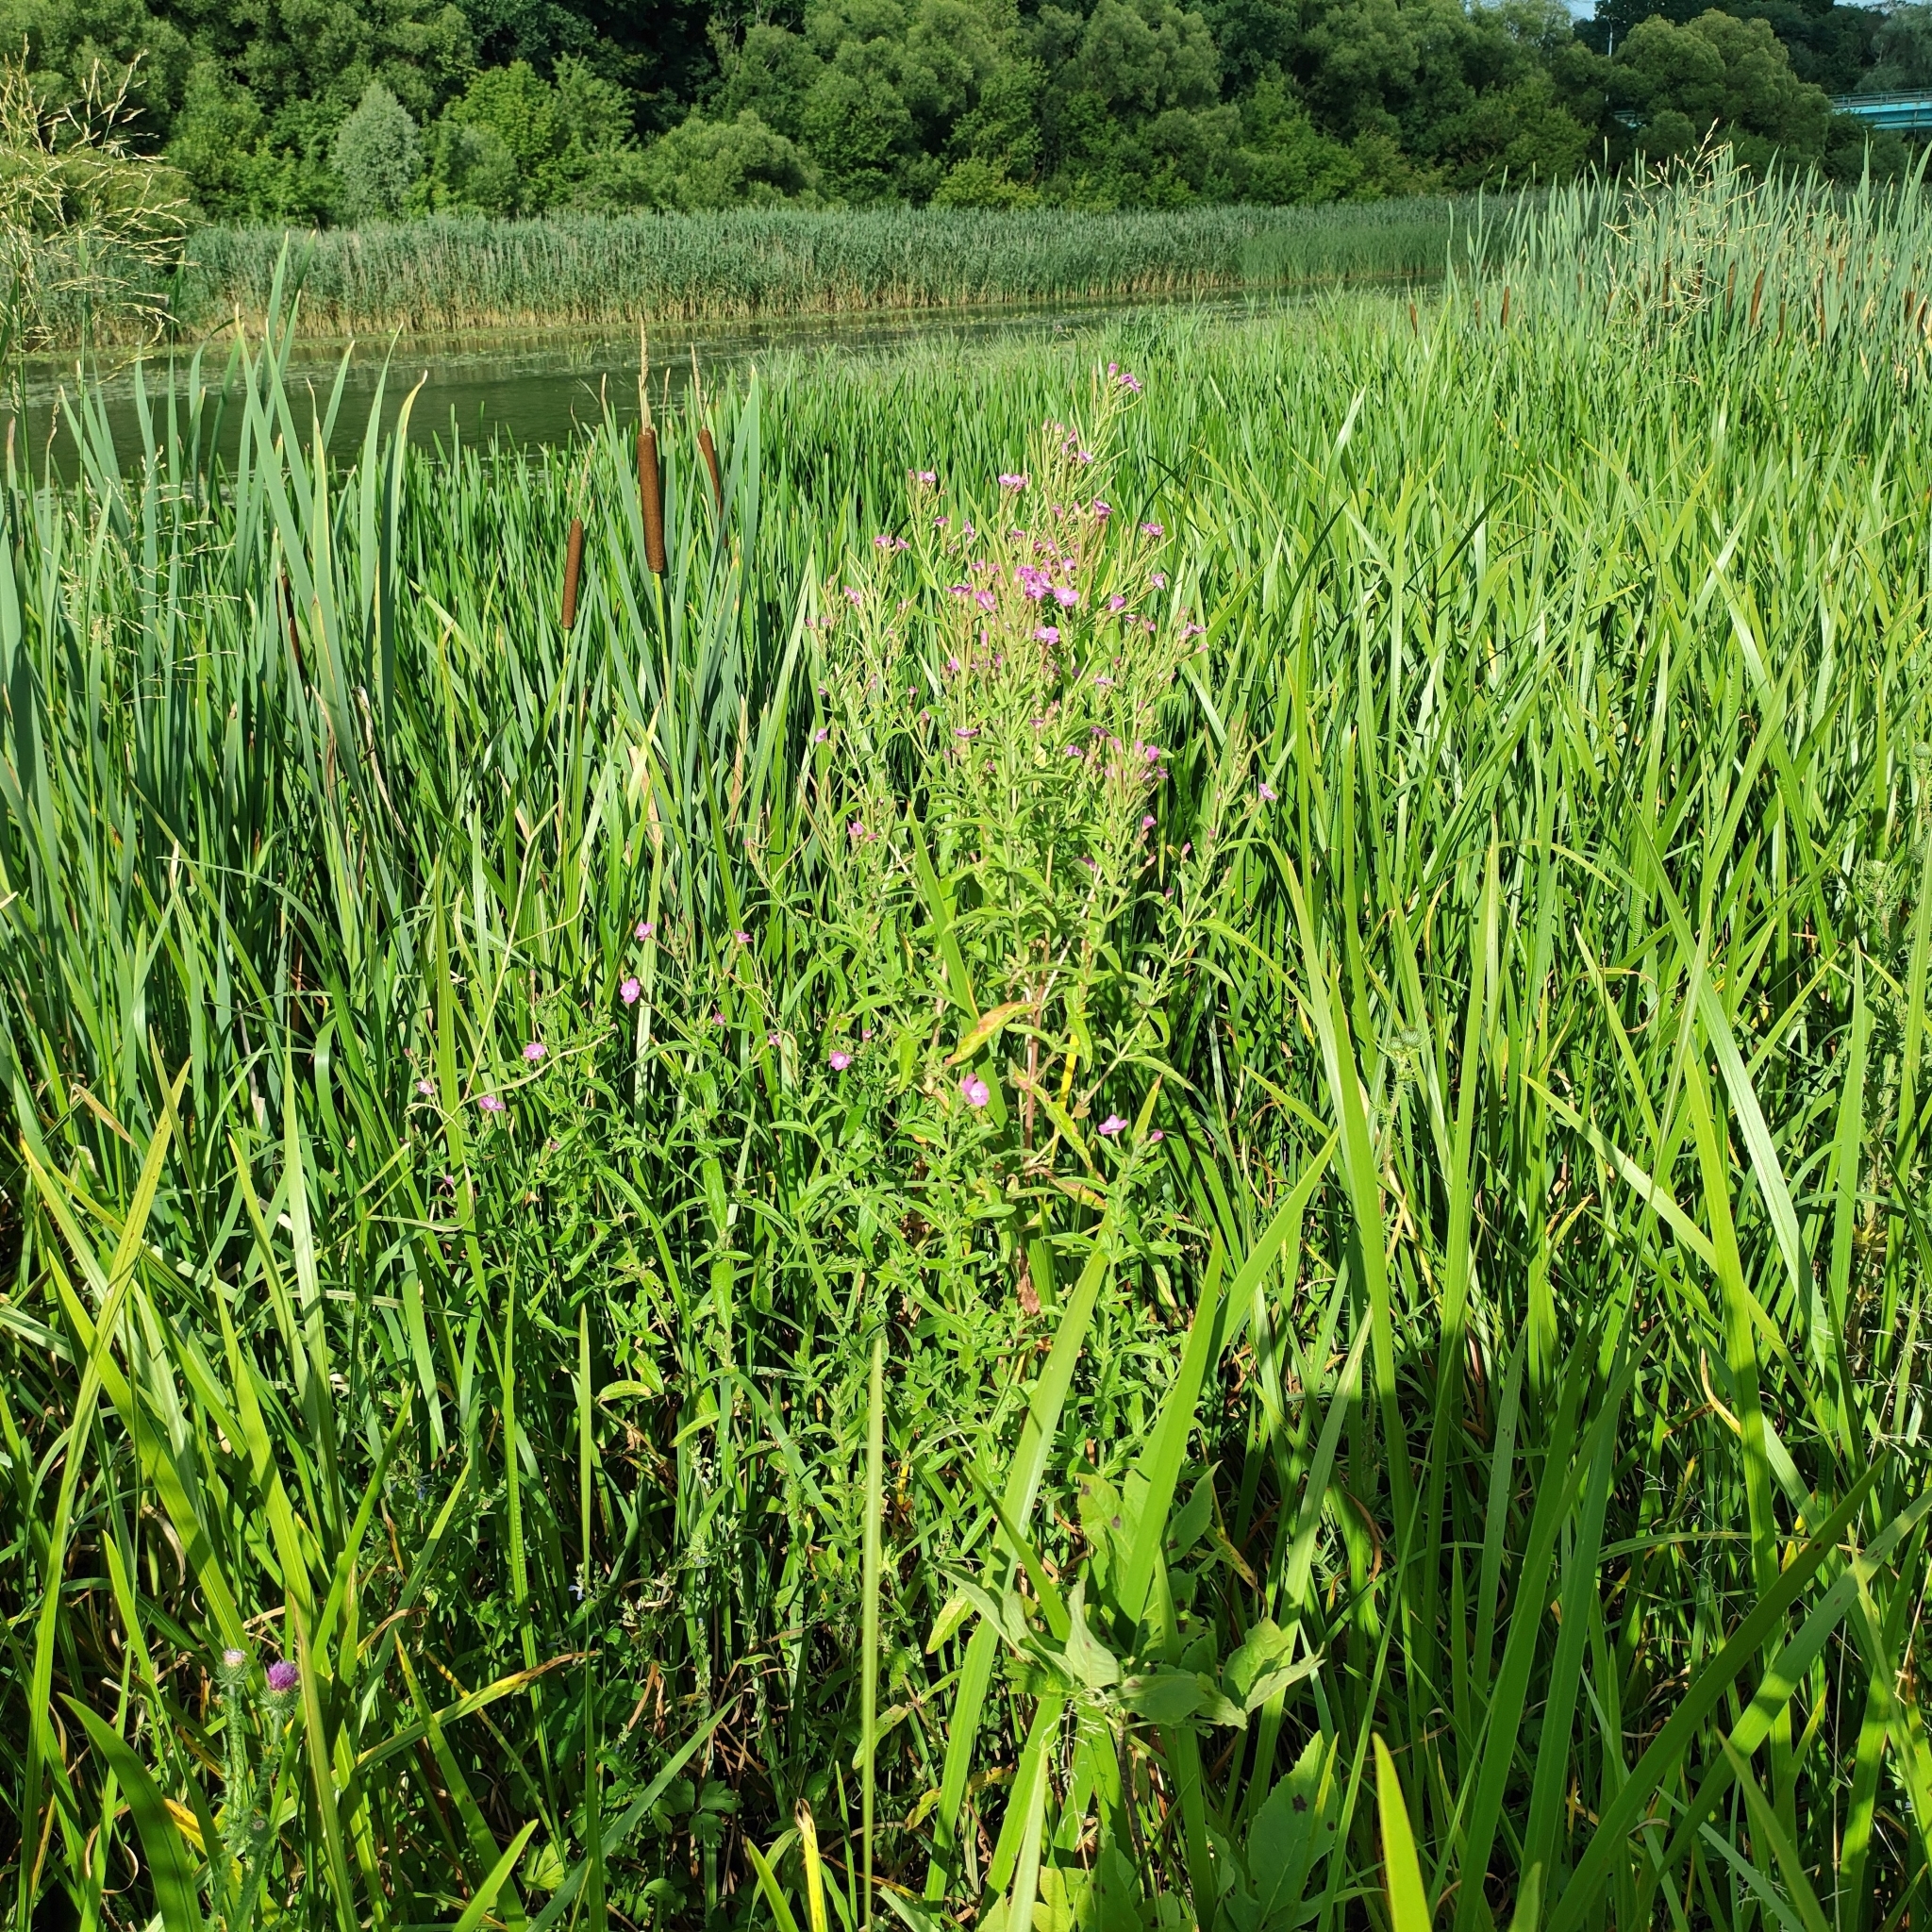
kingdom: Plantae
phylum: Tracheophyta
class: Magnoliopsida
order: Myrtales
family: Onagraceae
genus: Epilobium
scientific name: Epilobium hirsutum
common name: Great willowherb
